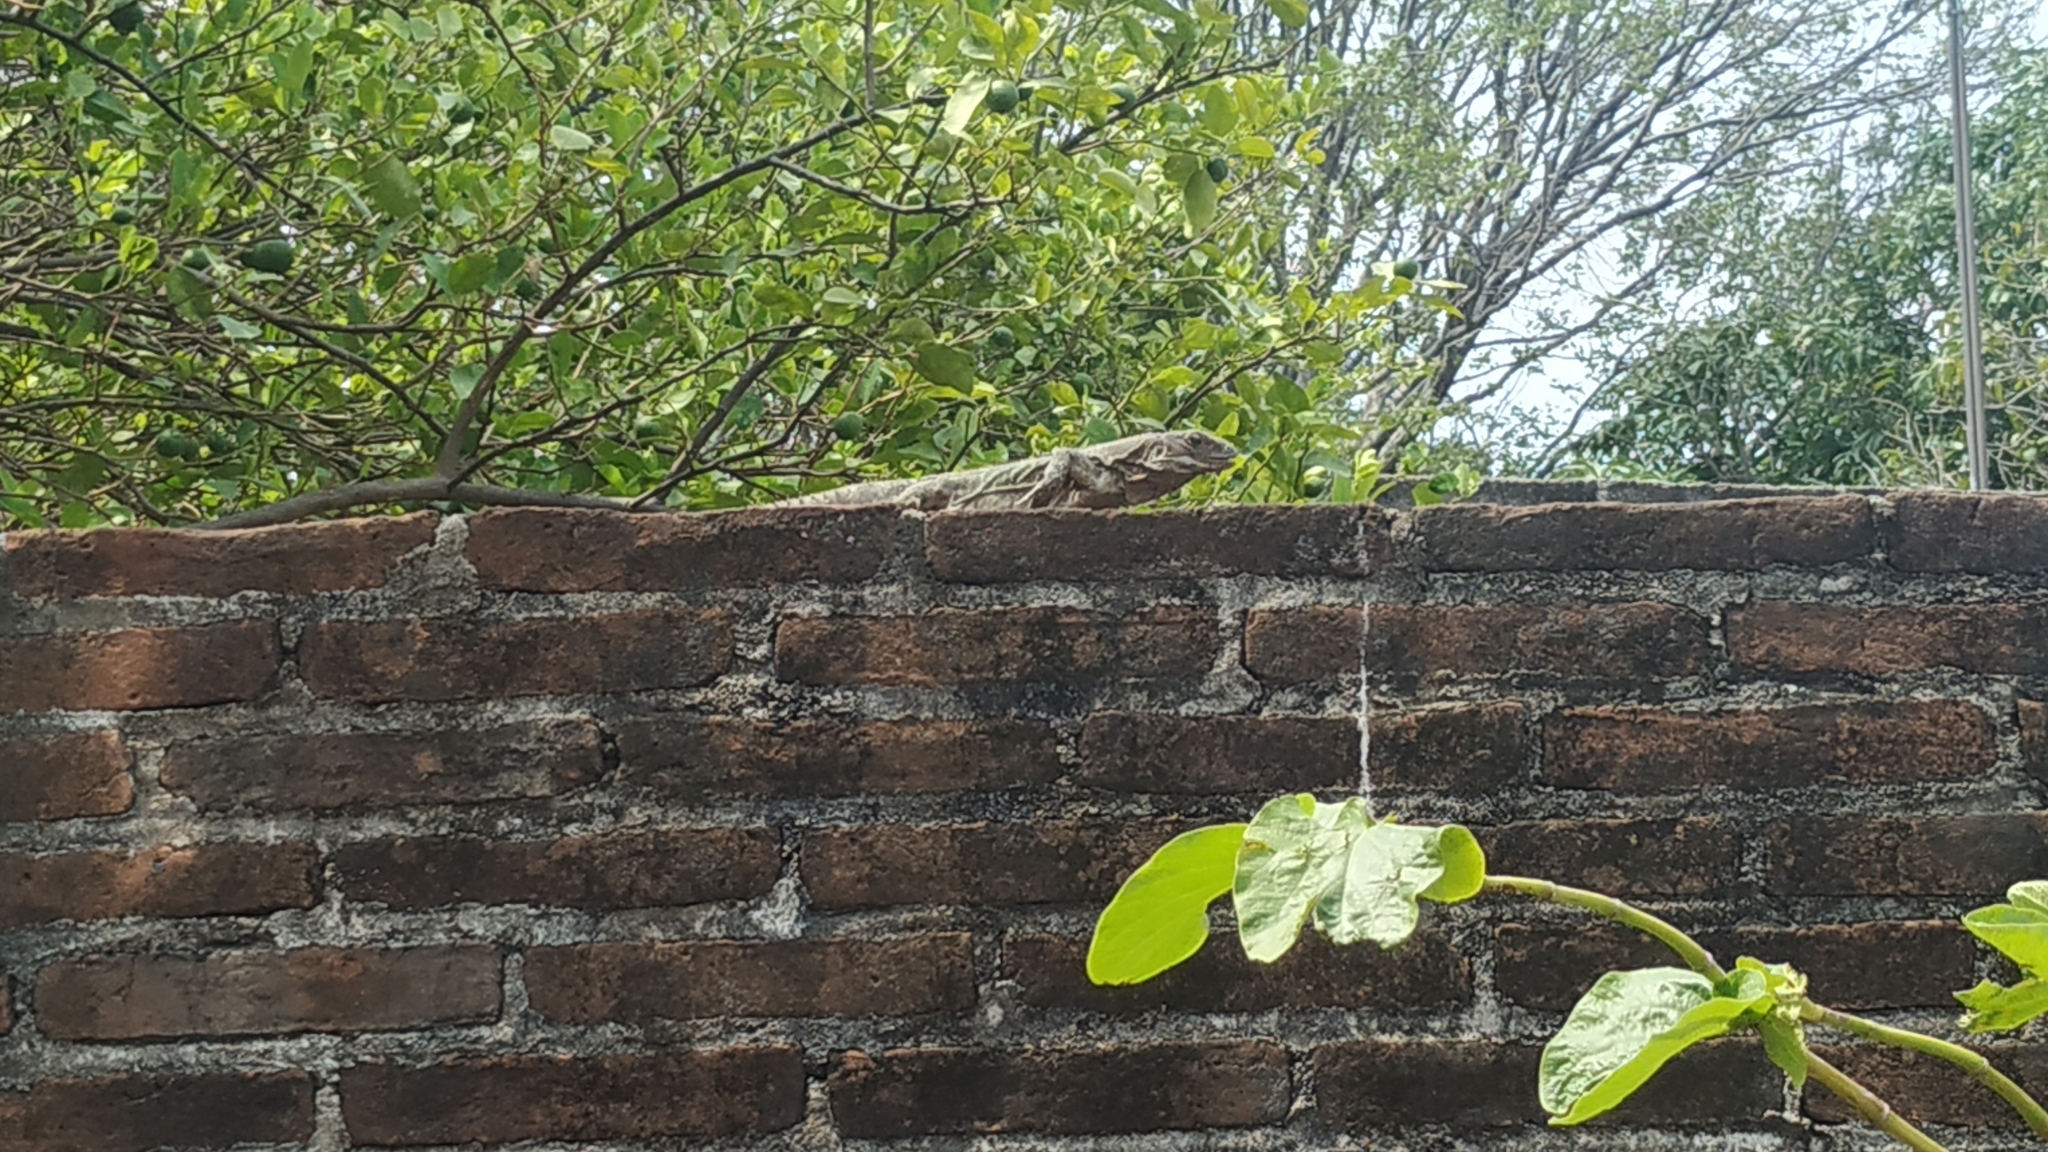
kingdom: Animalia
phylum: Chordata
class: Squamata
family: Iguanidae
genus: Ctenosaura
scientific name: Ctenosaura pectinata
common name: Guerreran spiny-tailed iguana
